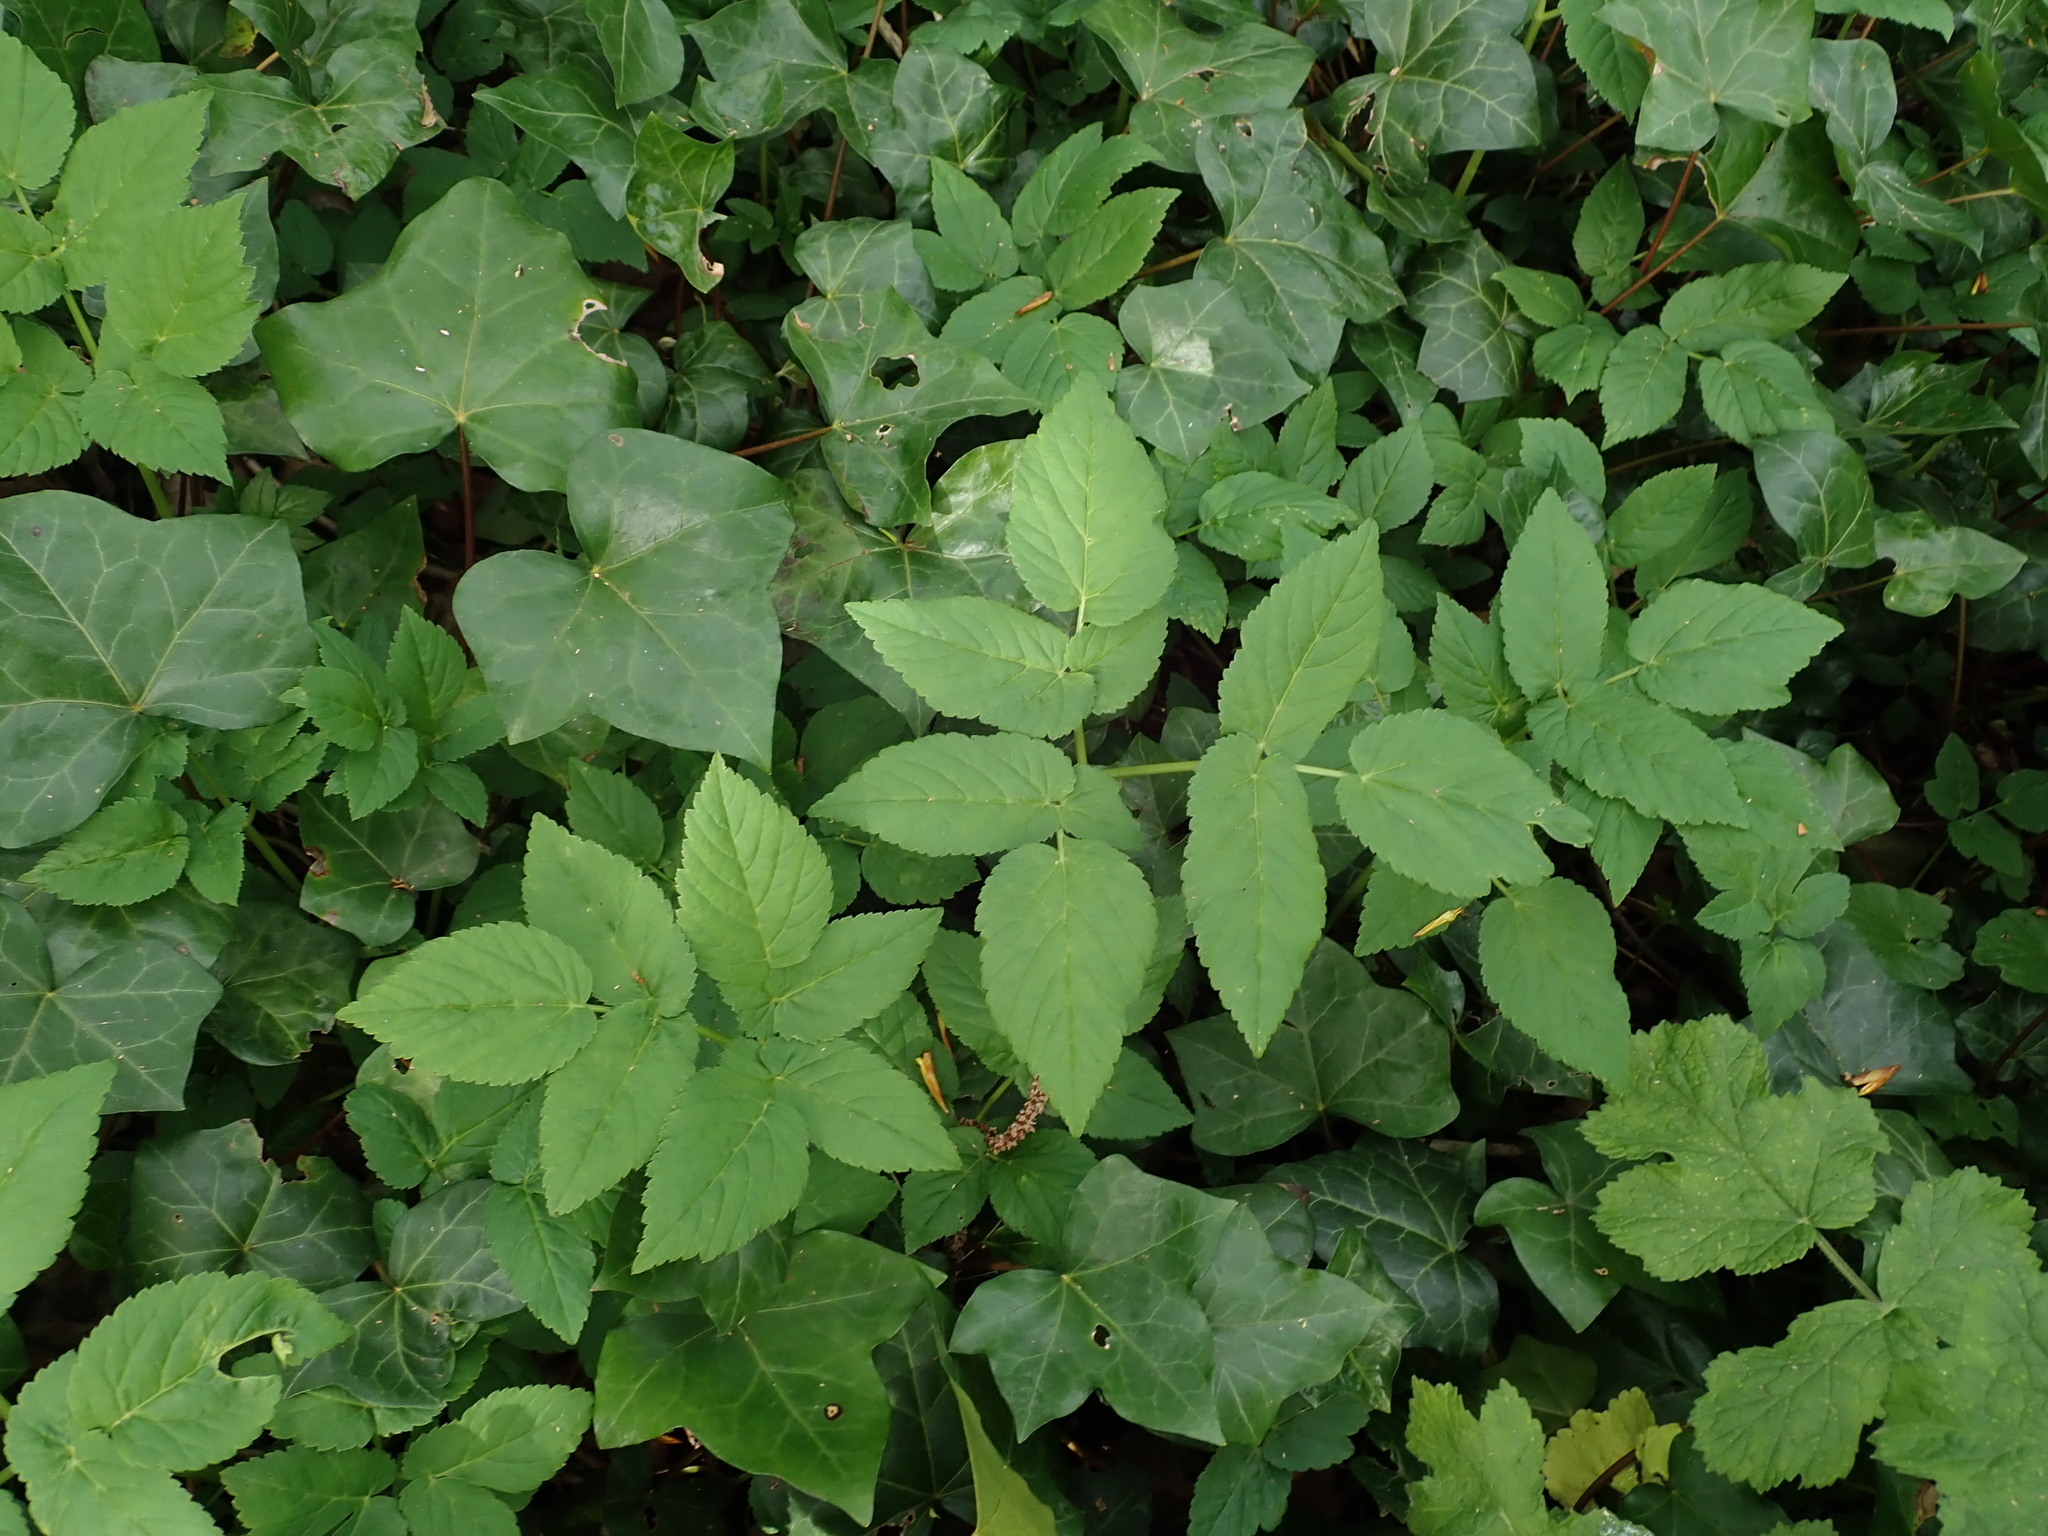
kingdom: Plantae
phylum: Tracheophyta
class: Magnoliopsida
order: Apiales
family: Apiaceae
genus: Aegopodium
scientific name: Aegopodium podagraria
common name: Ground-elder
